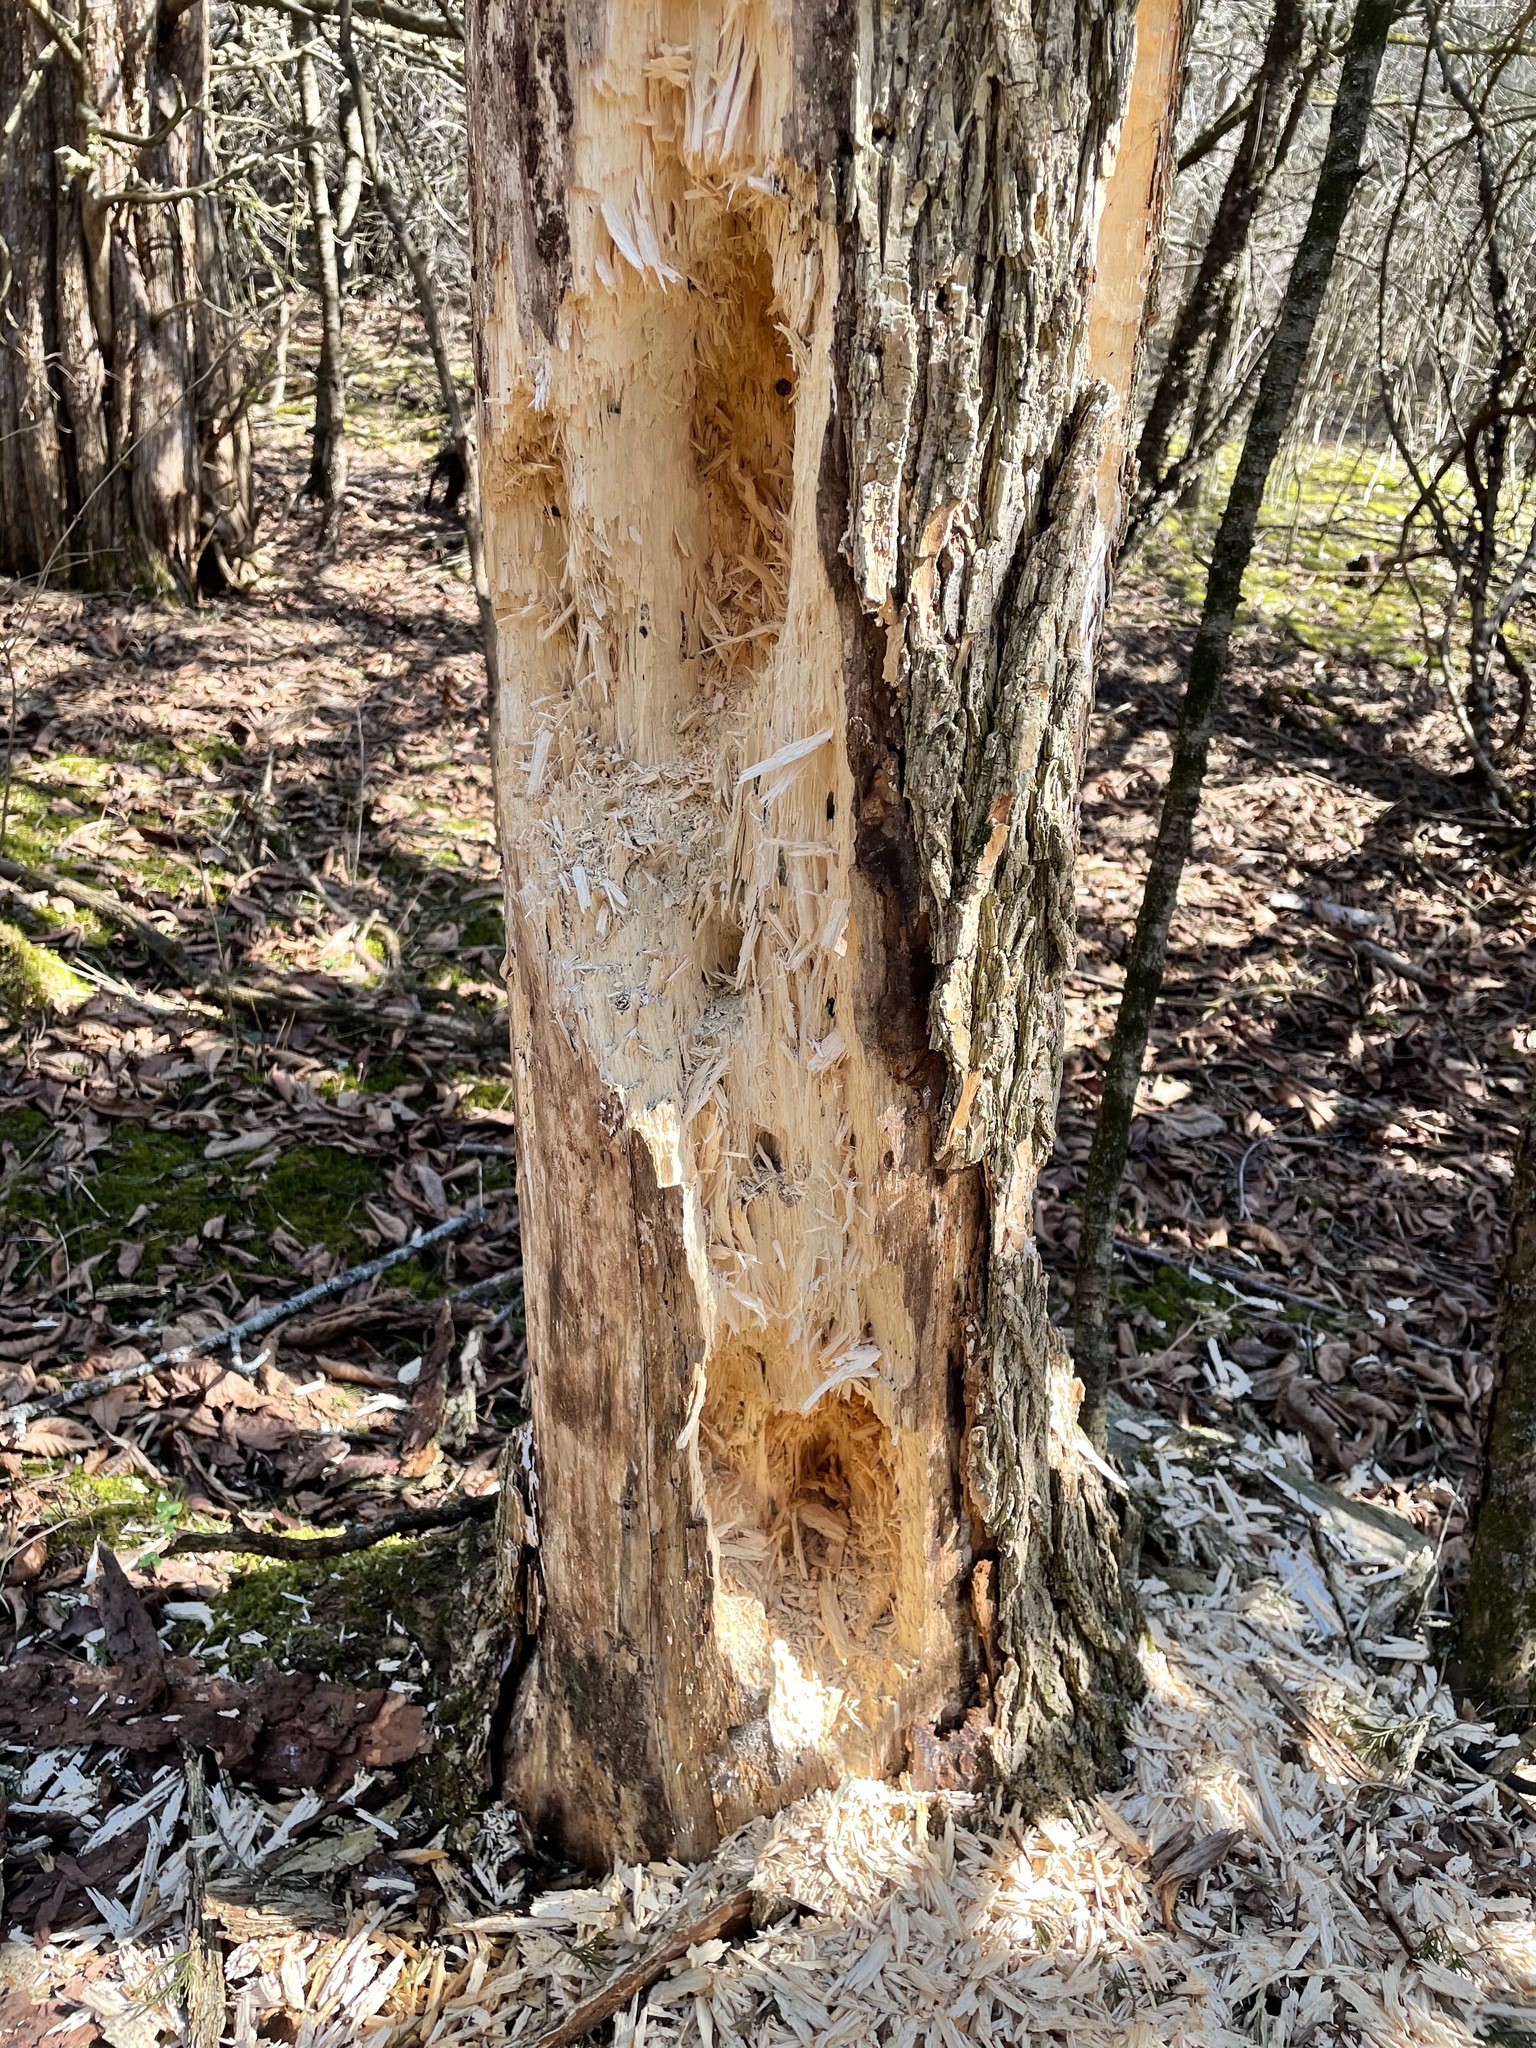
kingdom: Animalia
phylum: Chordata
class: Aves
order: Piciformes
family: Picidae
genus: Dryocopus
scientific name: Dryocopus pileatus
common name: Pileated woodpecker
